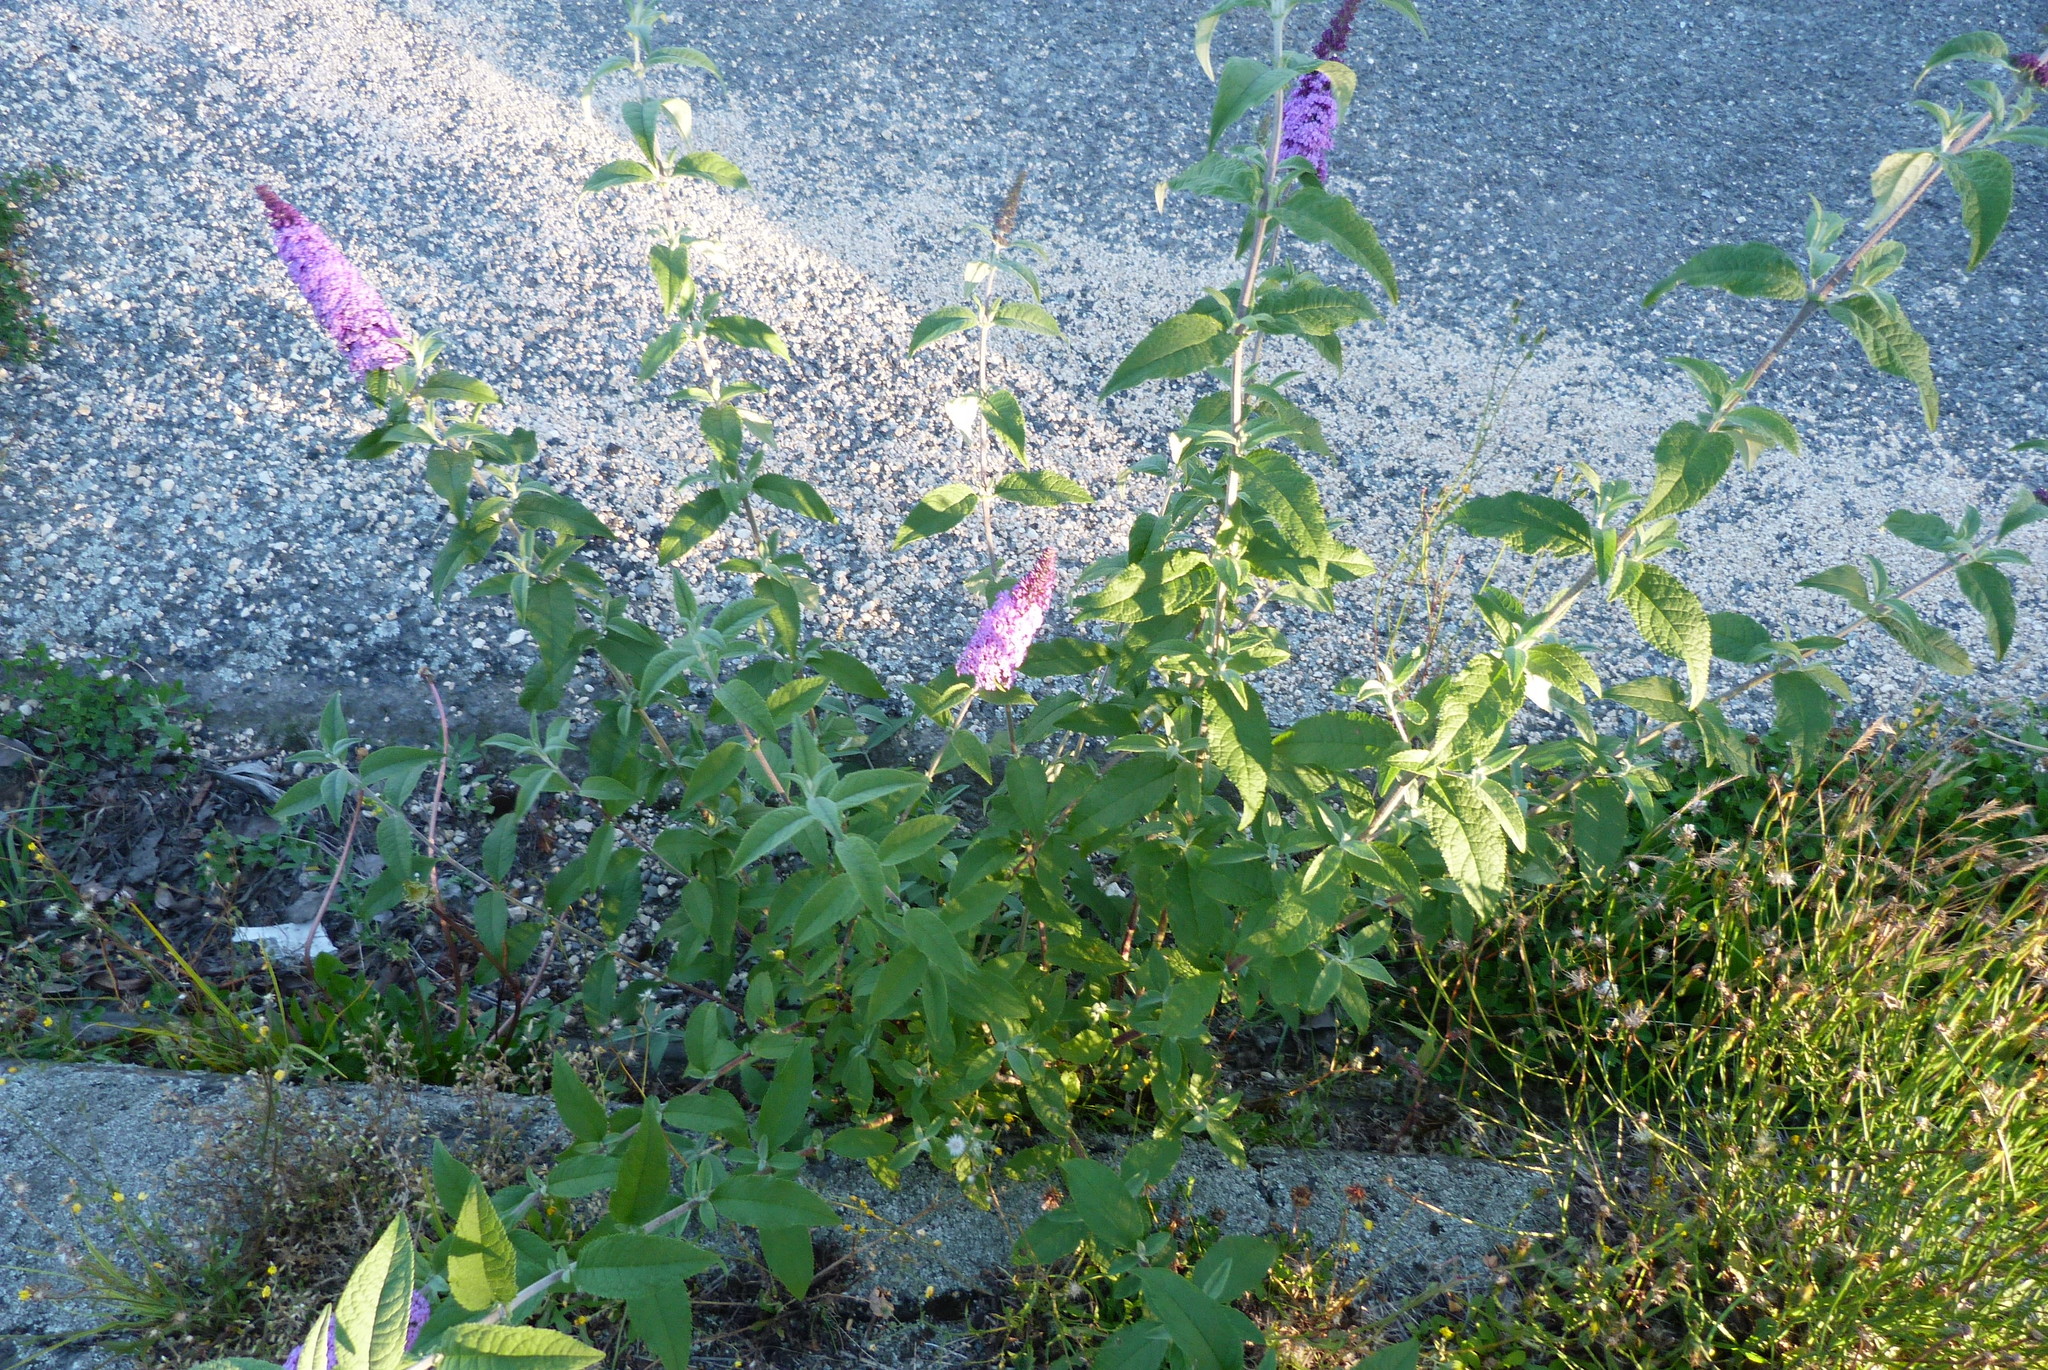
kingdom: Plantae
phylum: Tracheophyta
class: Magnoliopsida
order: Lamiales
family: Scrophulariaceae
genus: Buddleja
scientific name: Buddleja davidii
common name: Butterfly-bush
